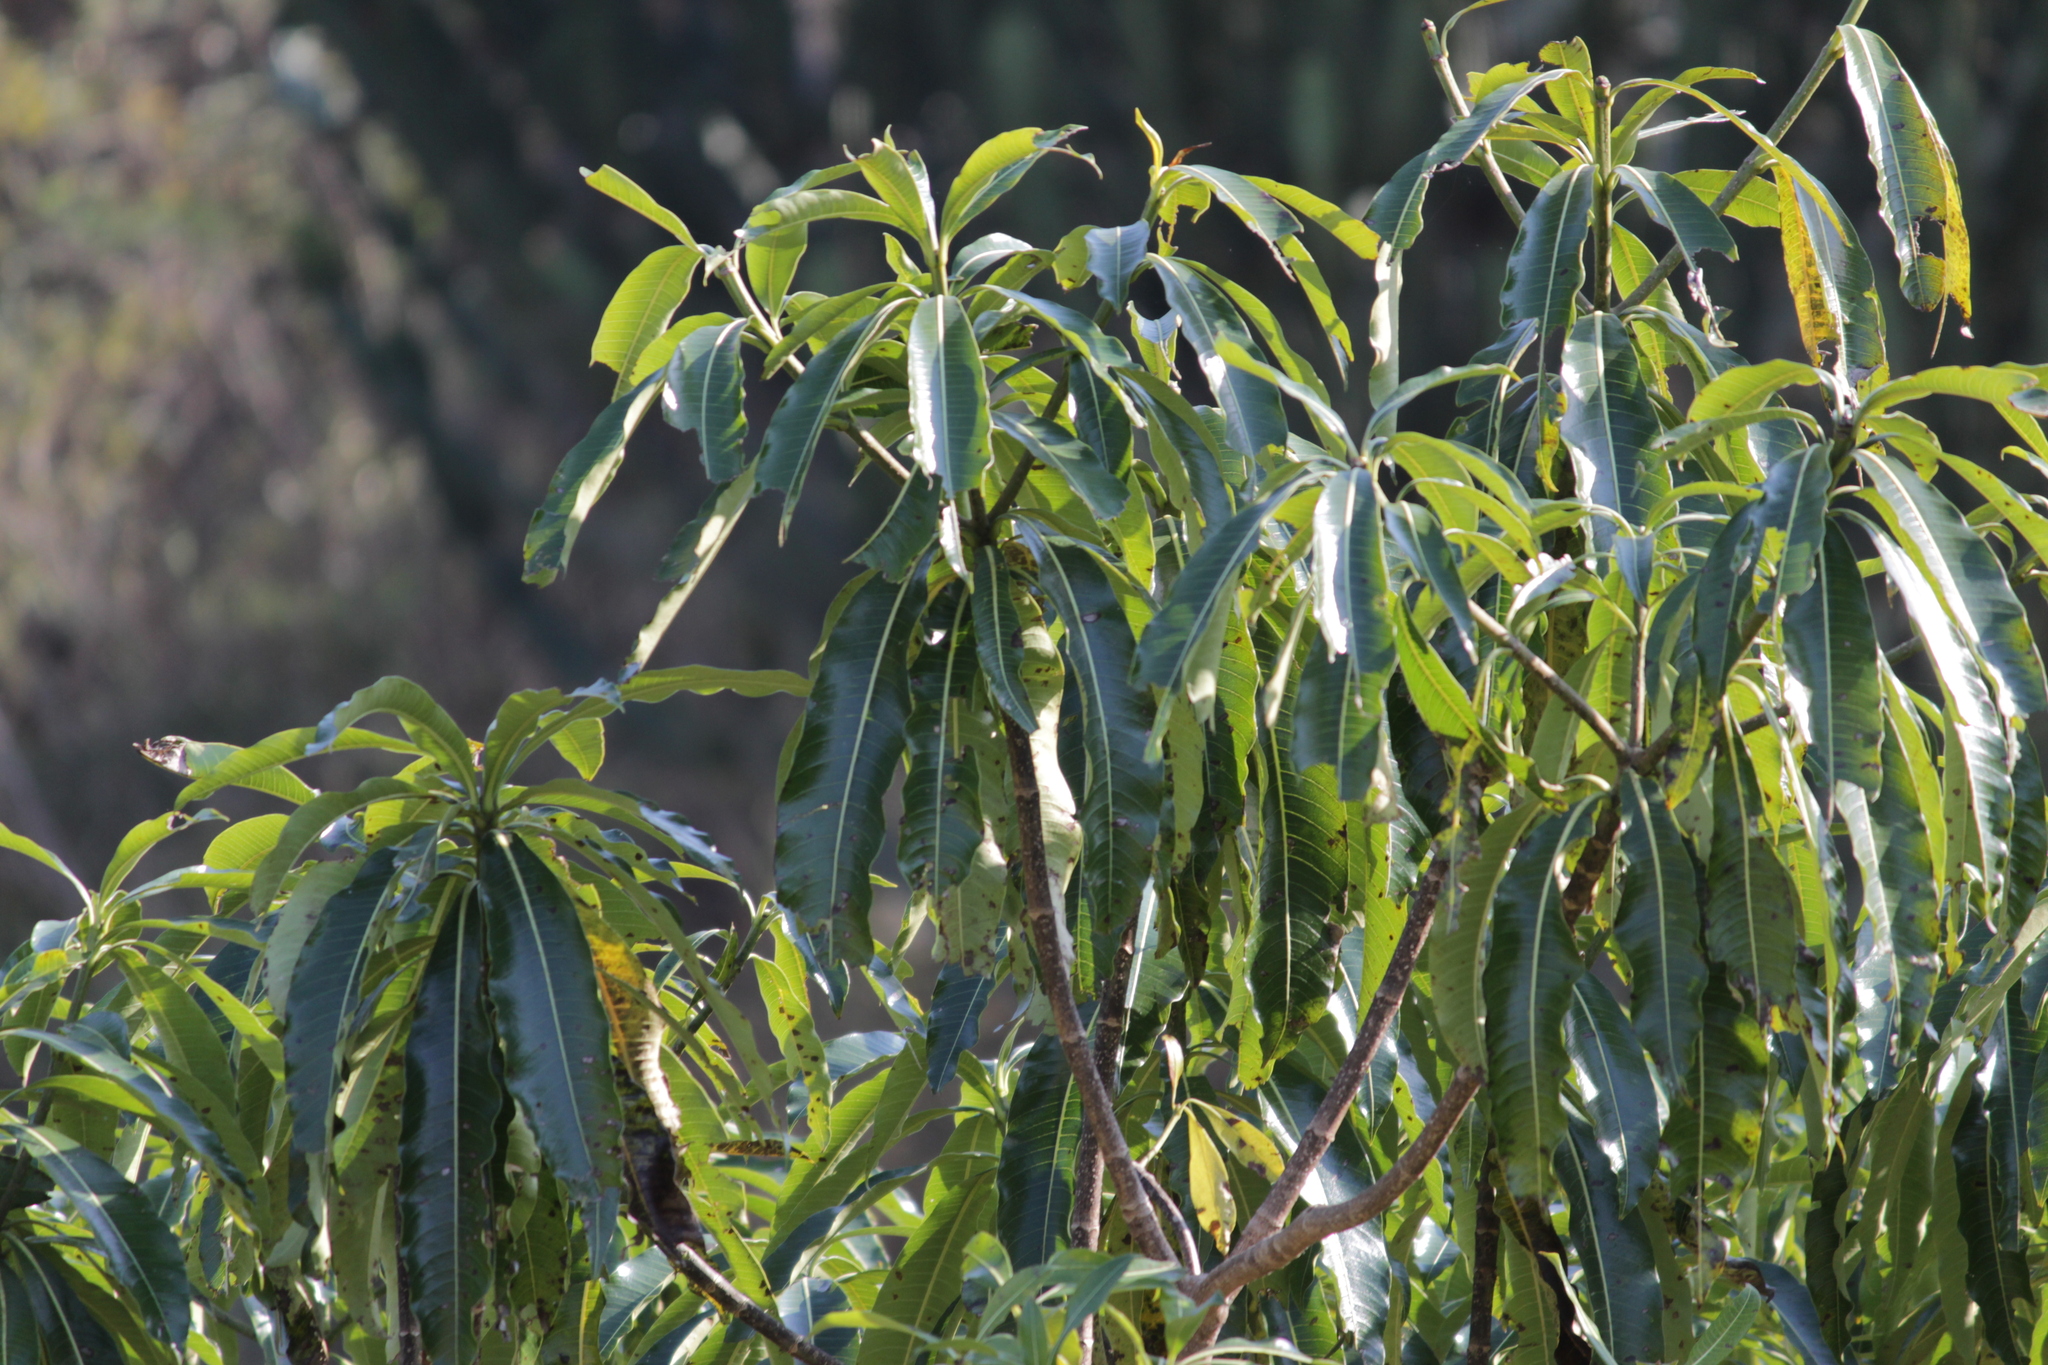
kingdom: Plantae
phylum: Tracheophyta
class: Magnoliopsida
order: Gentianales
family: Apocynaceae
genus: Rauvolfia
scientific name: Rauvolfia caffra
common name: Quininetree
